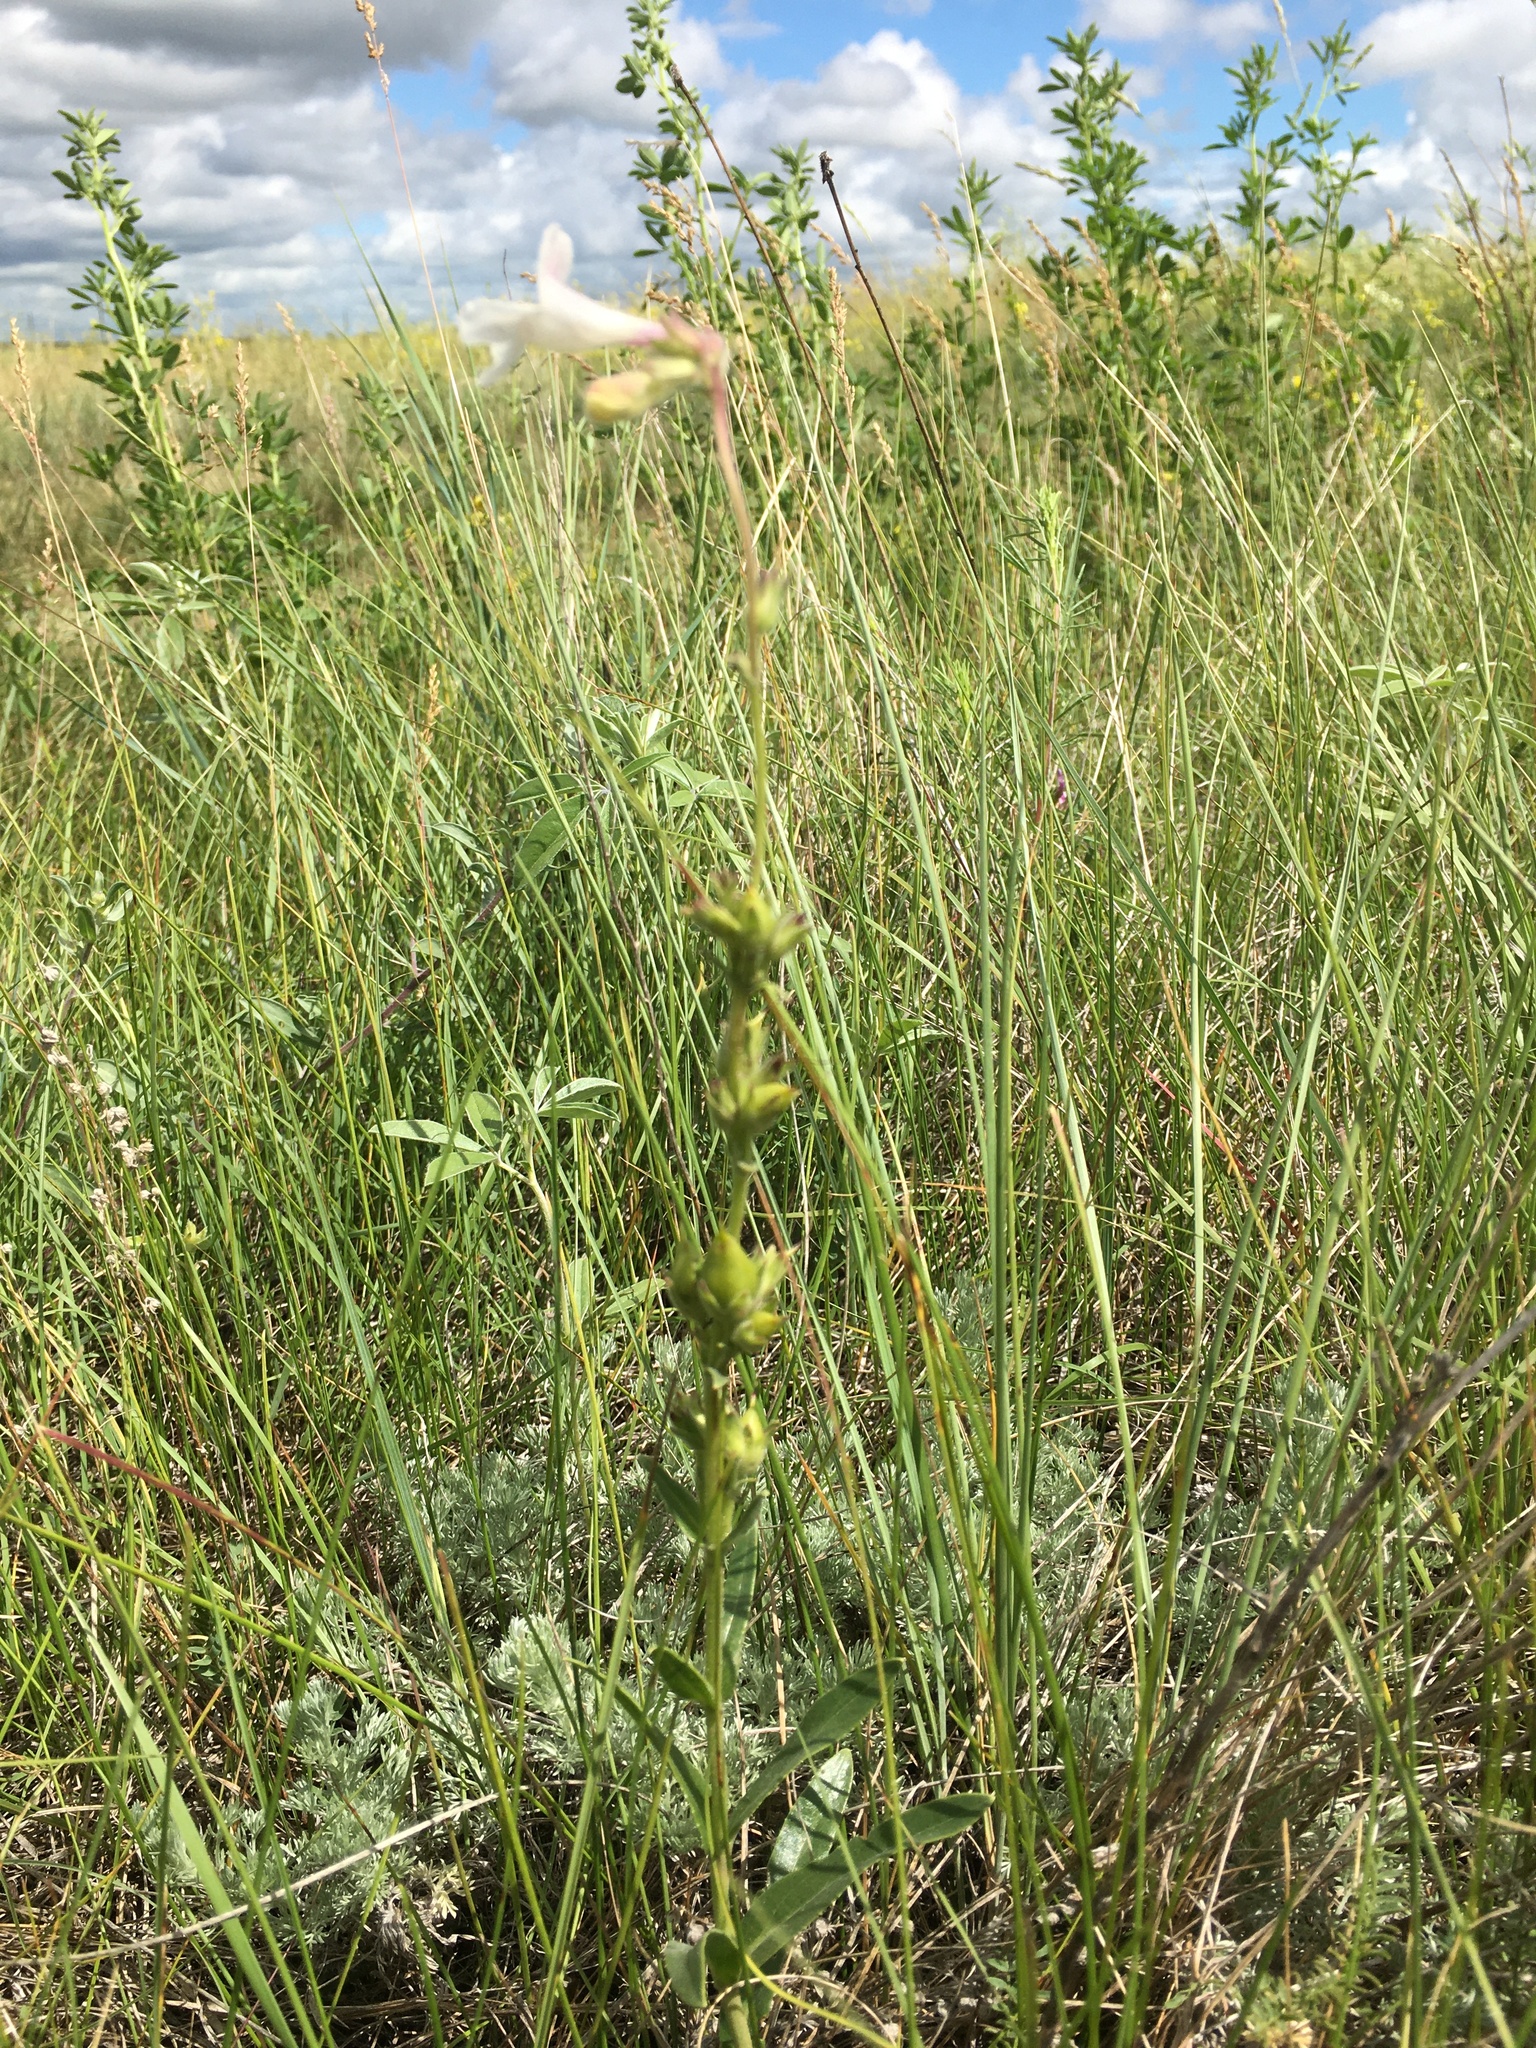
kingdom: Plantae
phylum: Tracheophyta
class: Magnoliopsida
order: Lamiales
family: Plantaginaceae
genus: Penstemon
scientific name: Penstemon albidus
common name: White beardtongue
